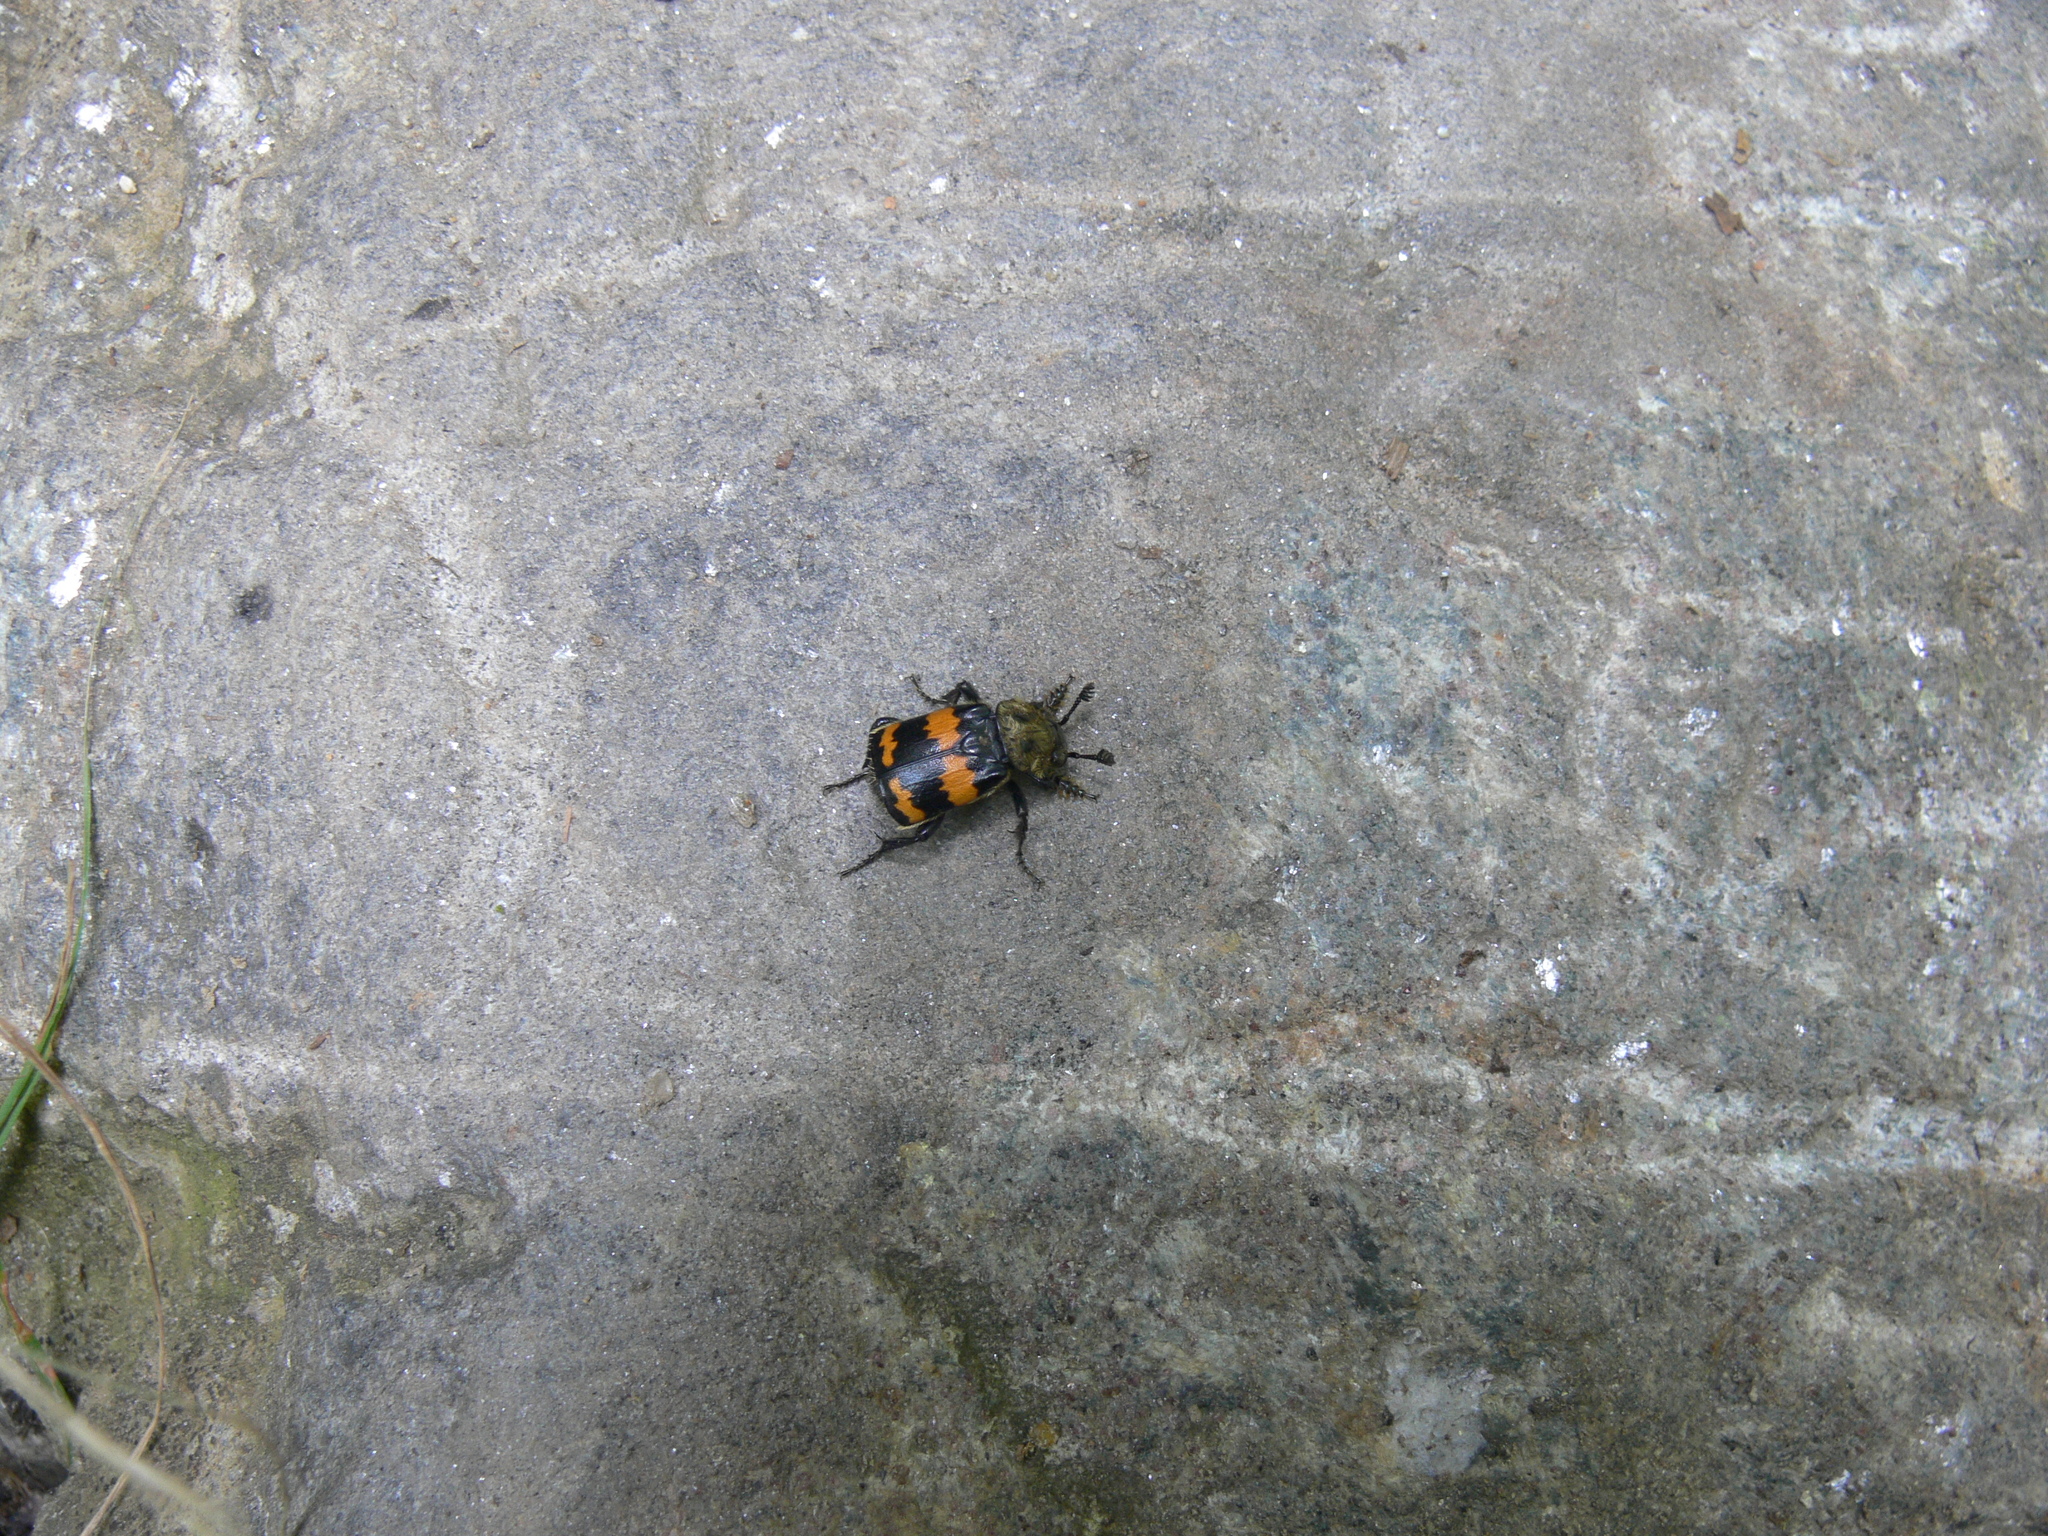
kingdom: Animalia
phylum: Arthropoda
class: Insecta
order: Coleoptera
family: Staphylinidae
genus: Nicrophorus
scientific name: Nicrophorus tomentosus
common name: Tomentose burying beetle
